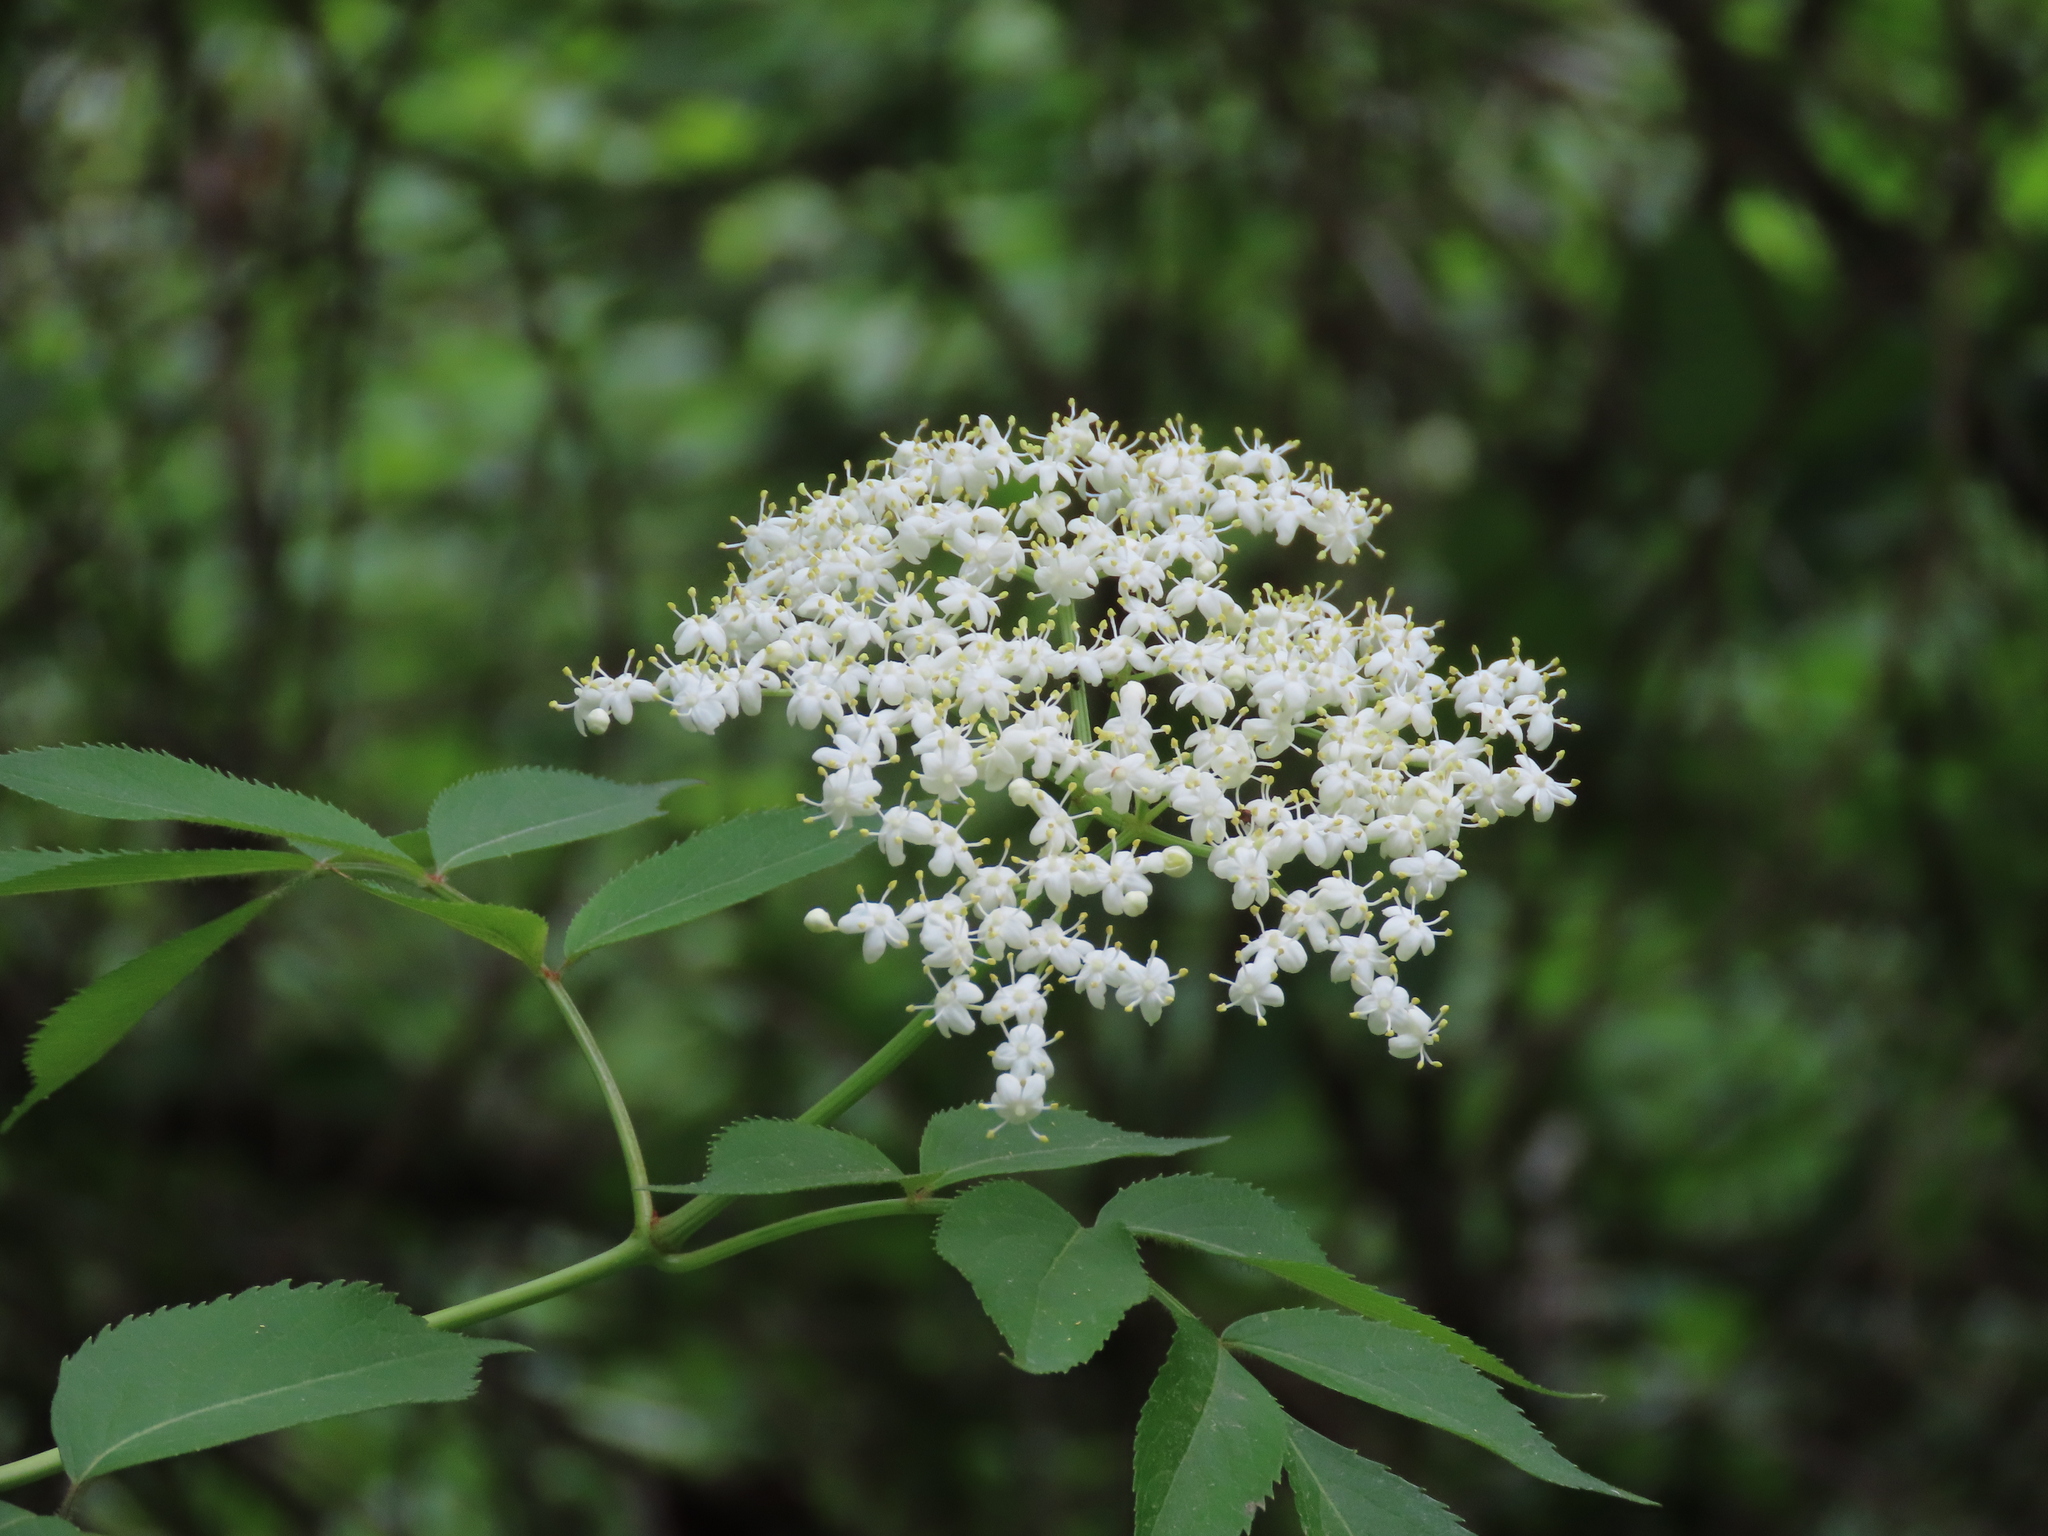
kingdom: Plantae
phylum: Tracheophyta
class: Magnoliopsida
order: Dipsacales
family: Viburnaceae
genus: Sambucus
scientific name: Sambucus canadensis
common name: American elder
